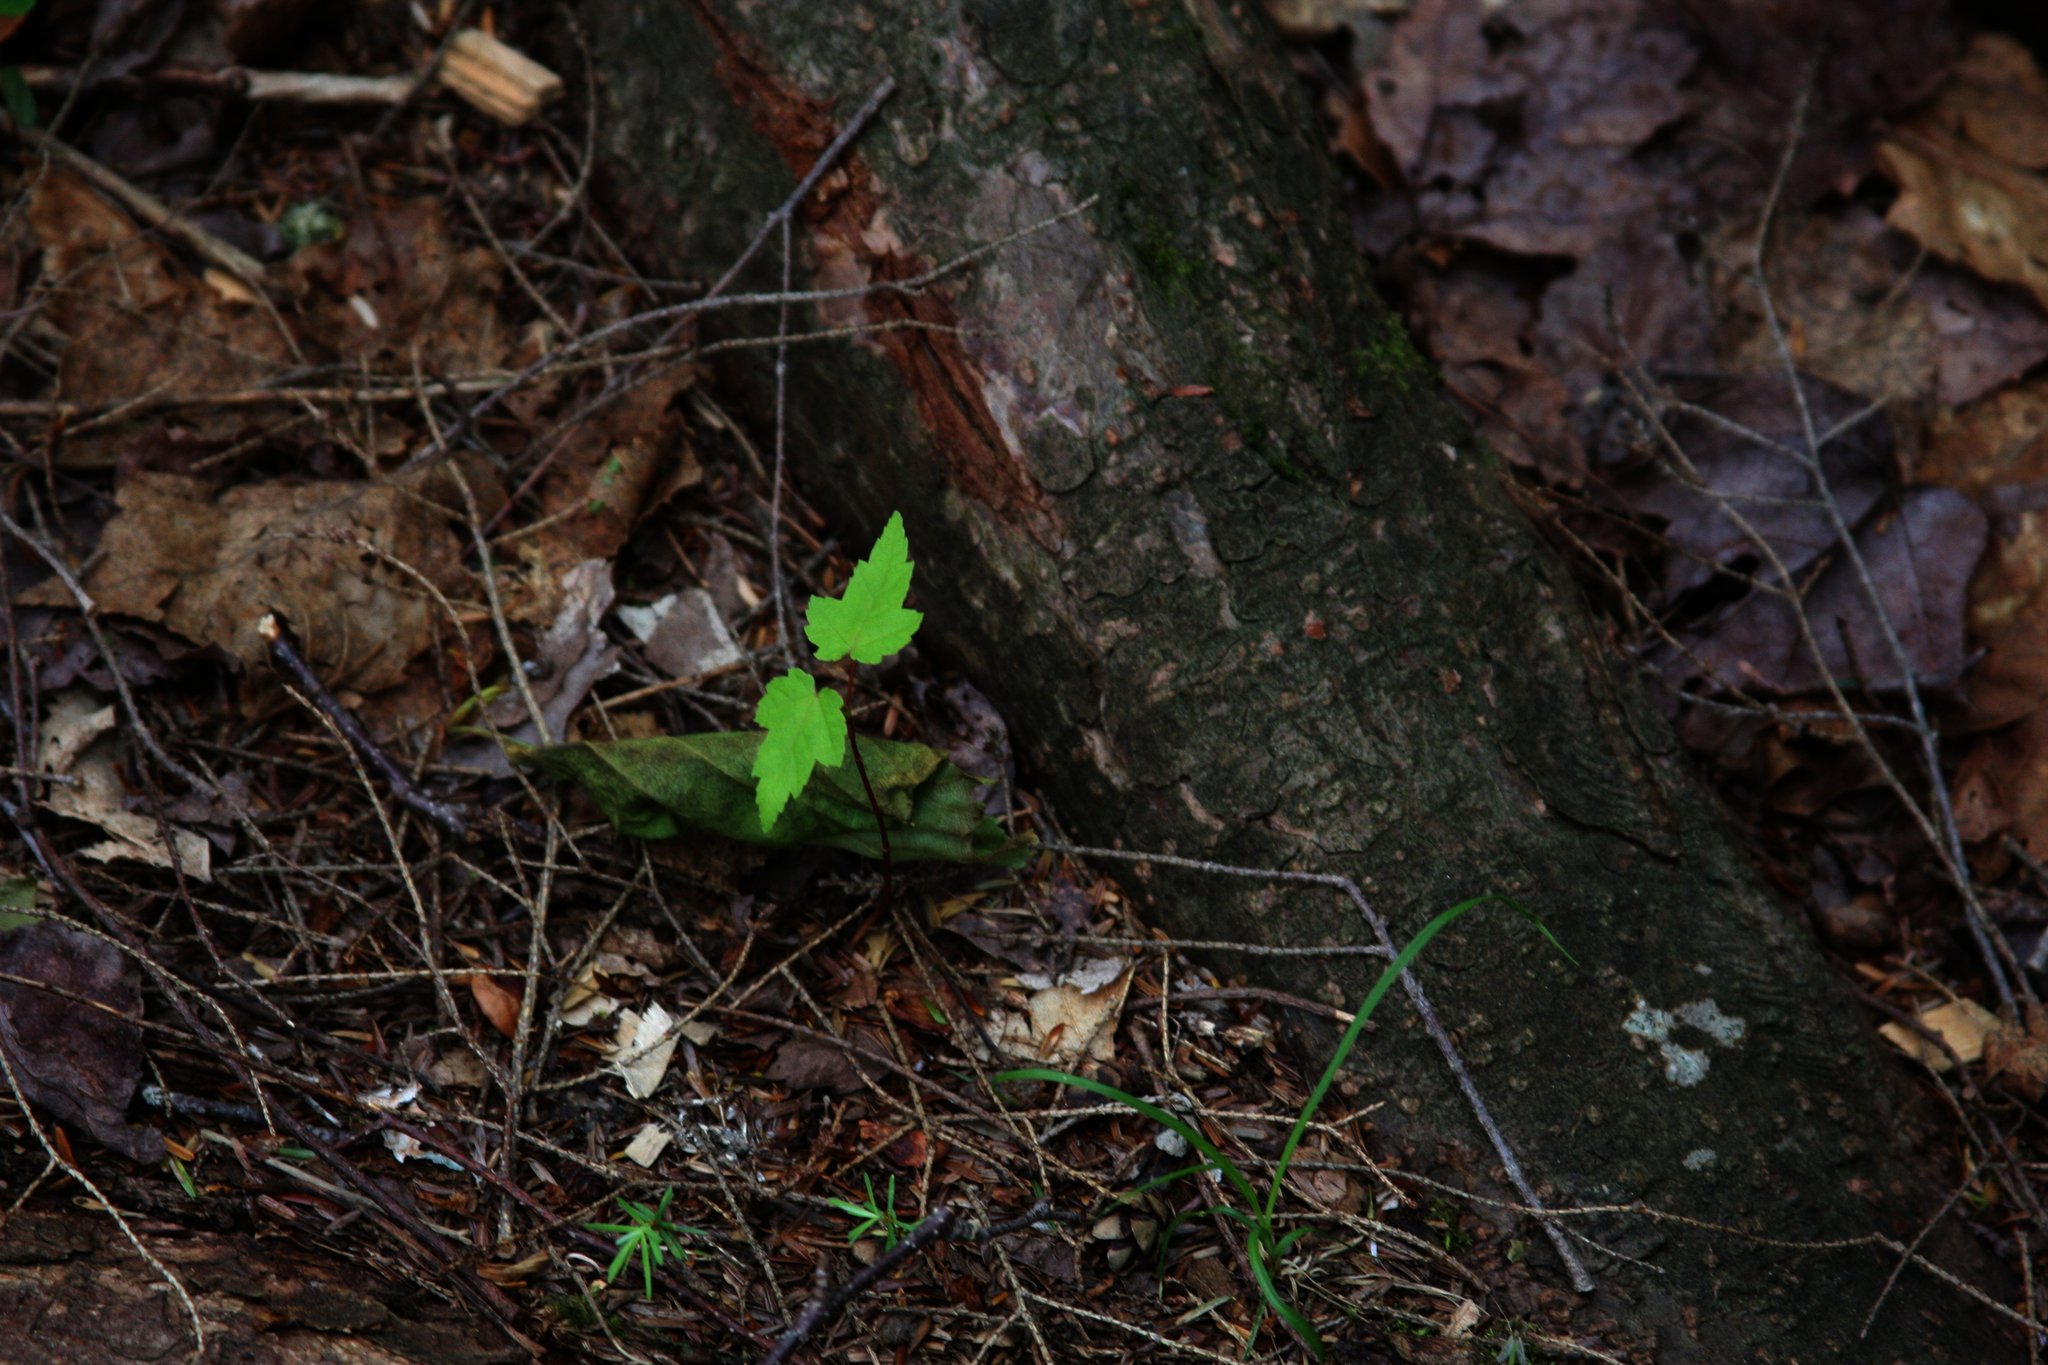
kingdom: Plantae
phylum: Tracheophyta
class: Magnoliopsida
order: Sapindales
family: Sapindaceae
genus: Acer
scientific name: Acer rubrum
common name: Red maple
